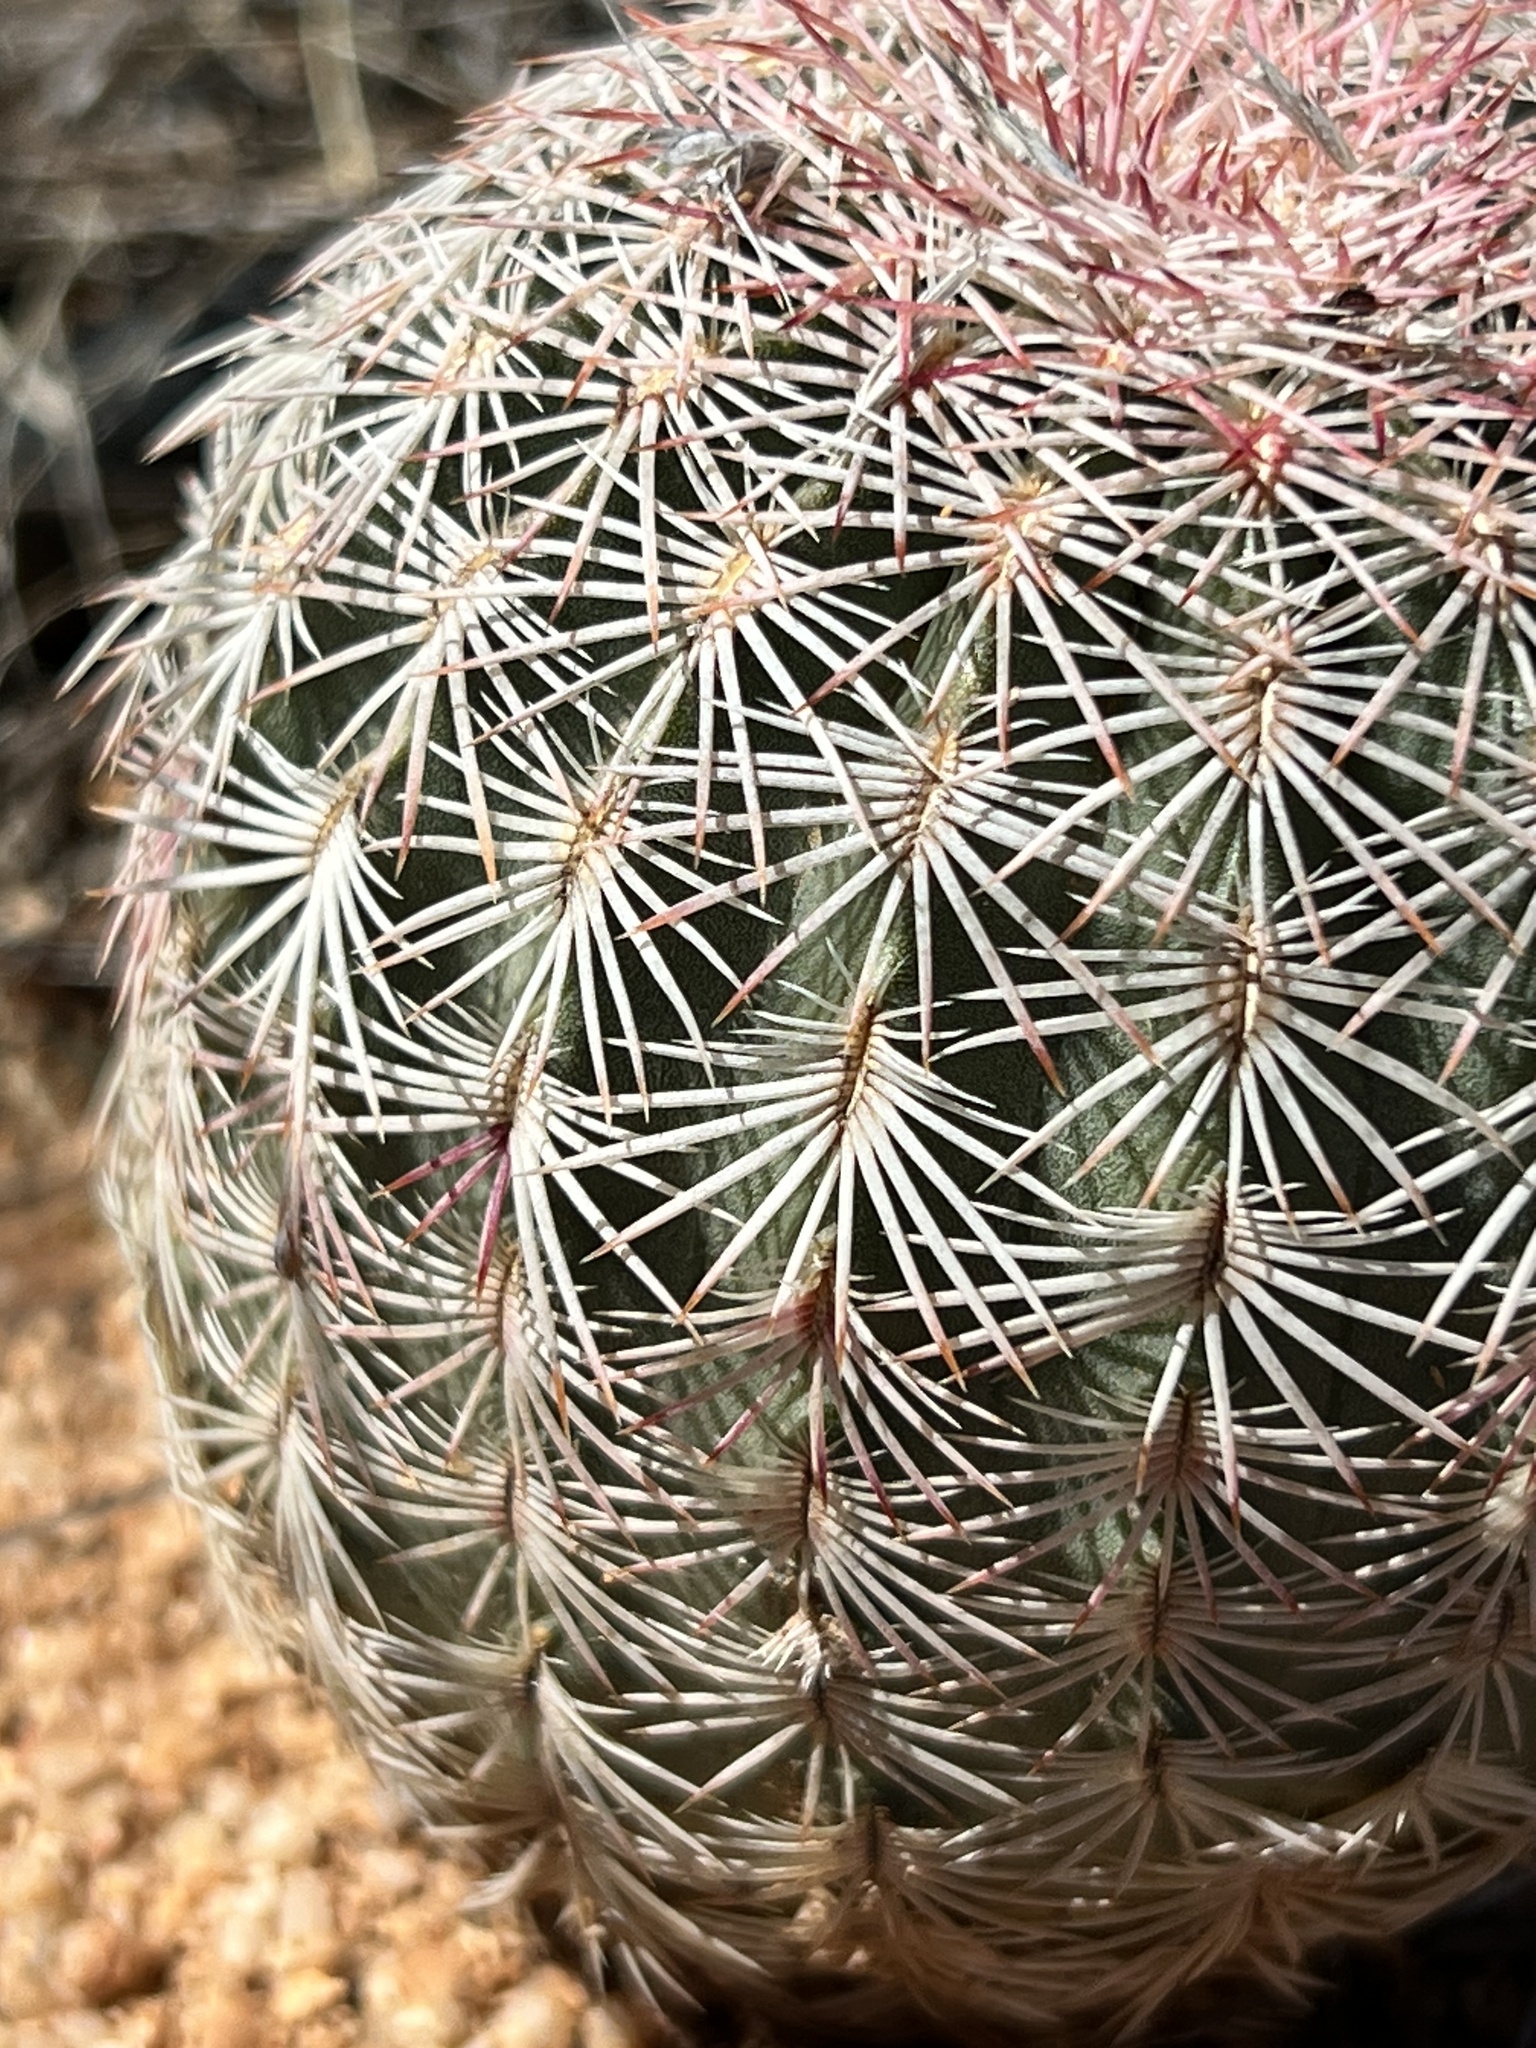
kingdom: Plantae
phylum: Tracheophyta
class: Magnoliopsida
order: Caryophyllales
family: Cactaceae
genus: Echinocereus
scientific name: Echinocereus rigidissimus
